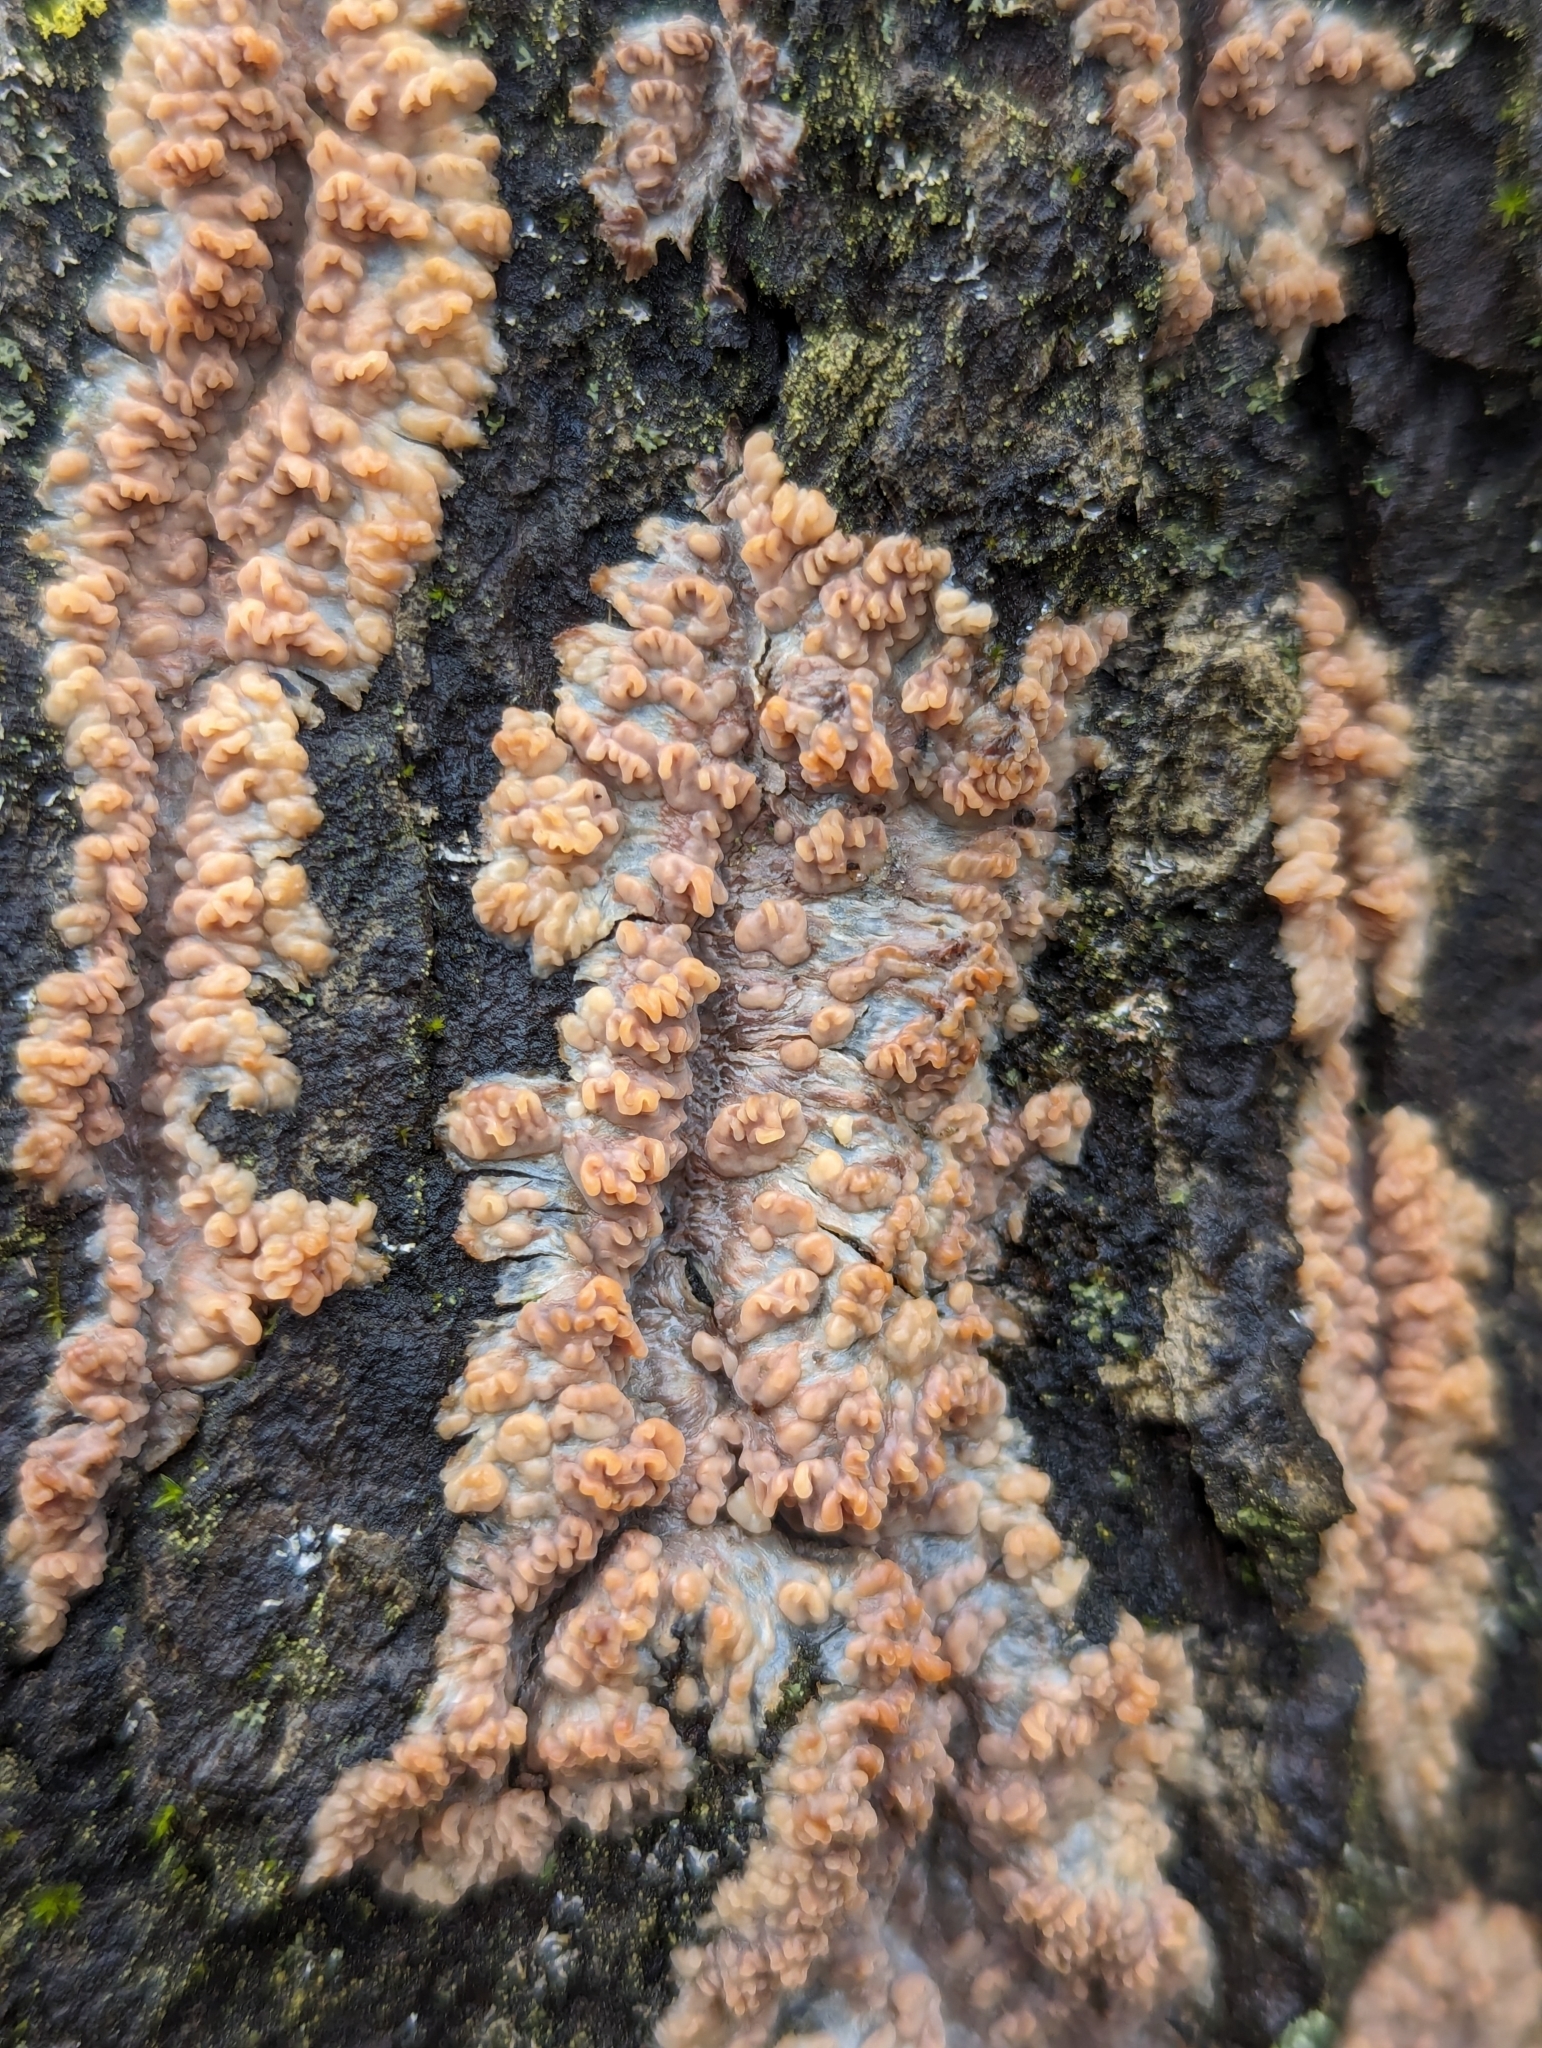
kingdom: Fungi
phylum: Basidiomycota
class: Agaricomycetes
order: Polyporales
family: Meruliaceae
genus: Phlebia
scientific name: Phlebia radiata
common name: Wrinkled crust
